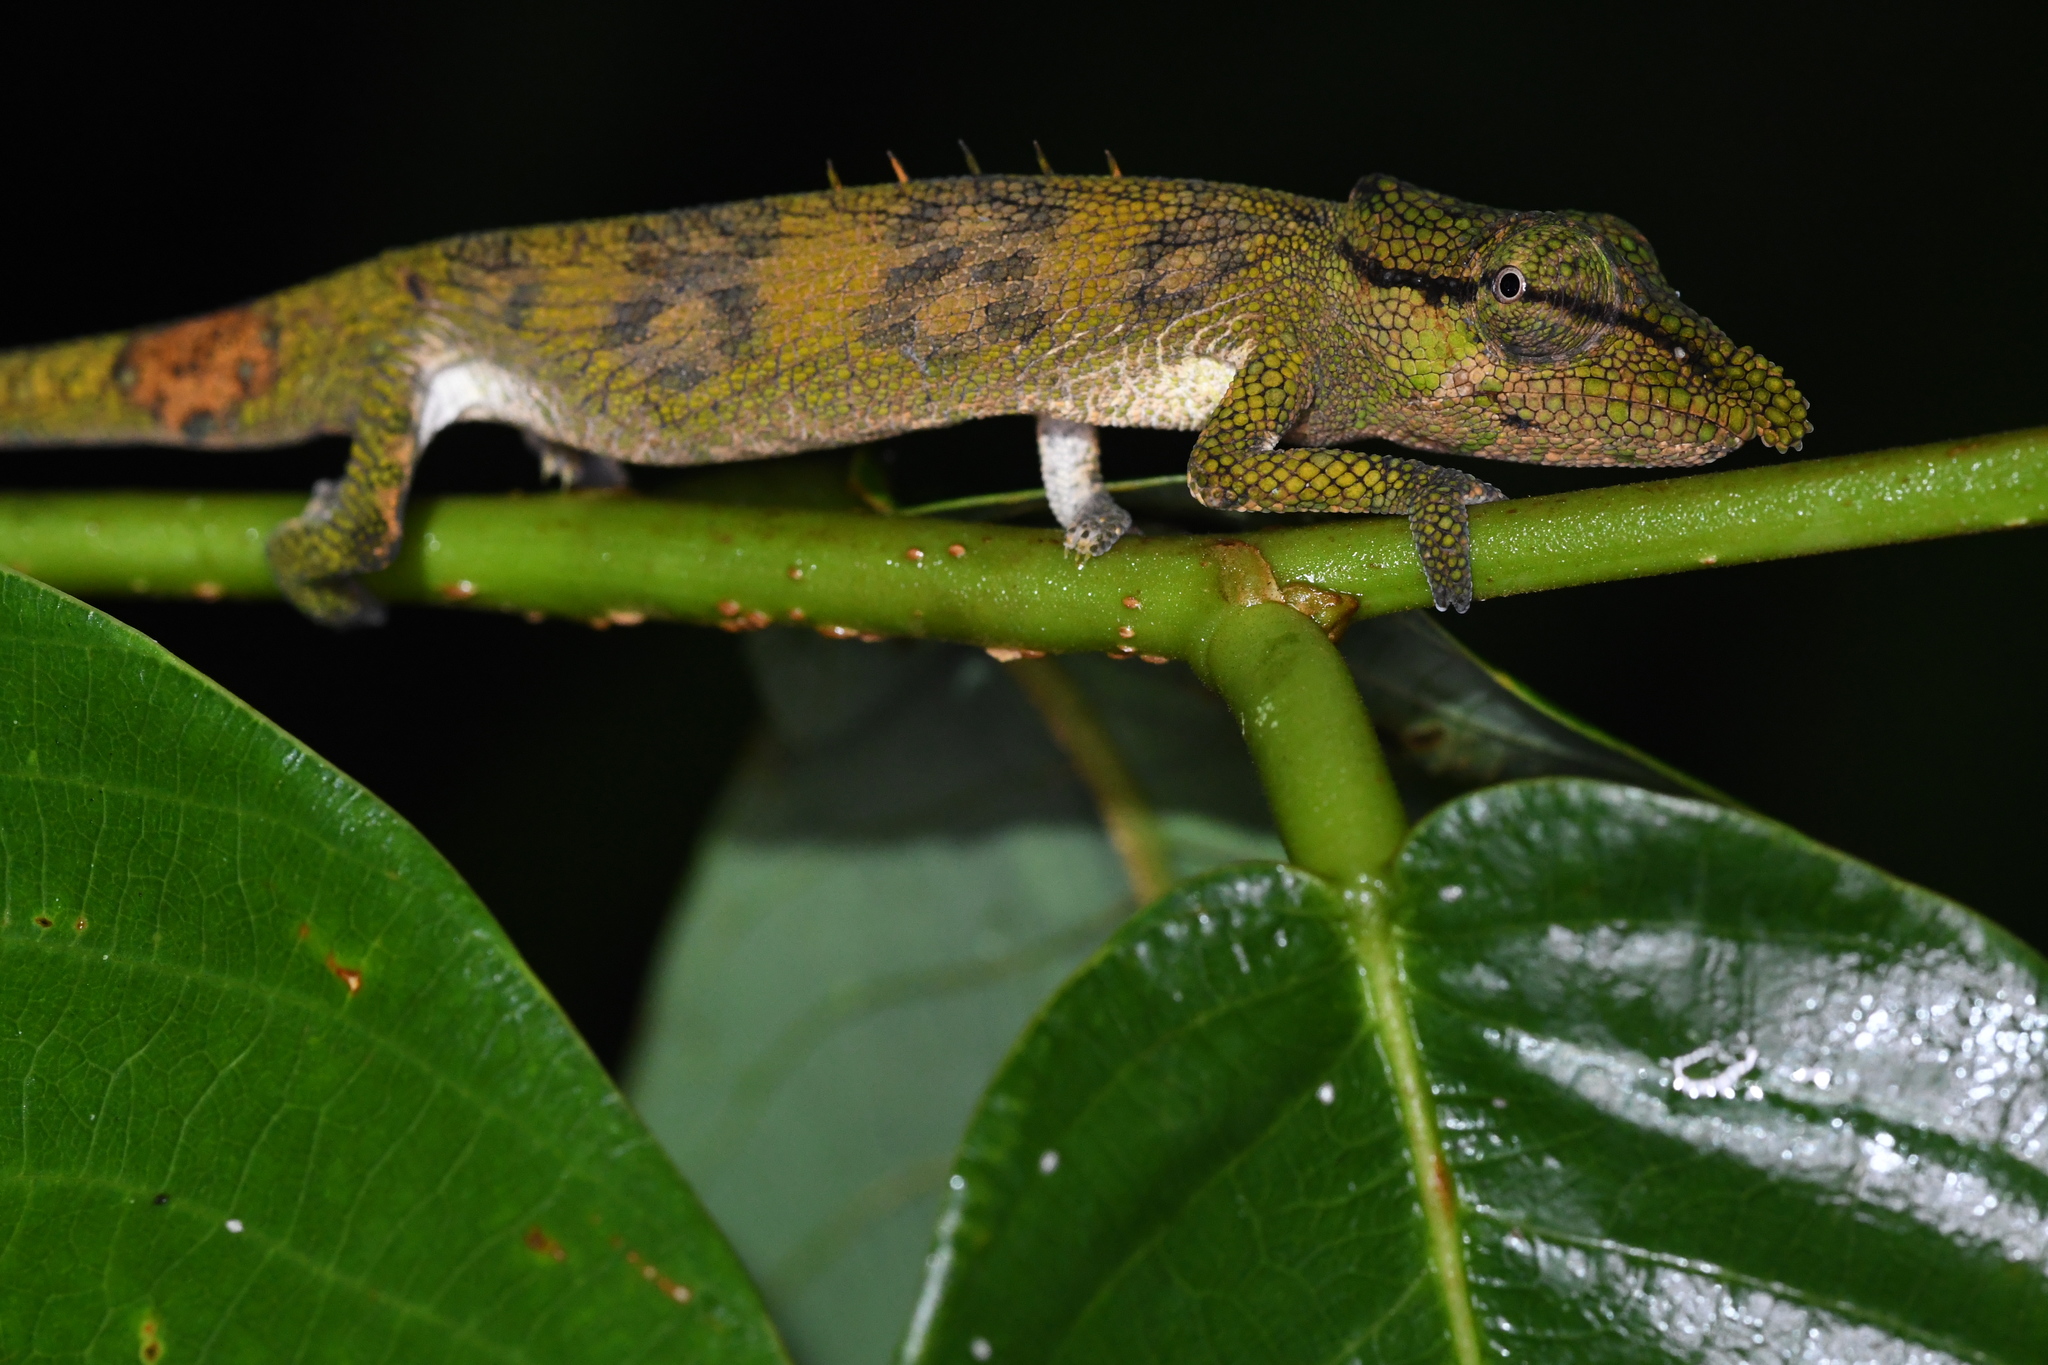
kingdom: Animalia
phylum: Chordata
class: Squamata
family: Chamaeleonidae
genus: Calumma
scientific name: Calumma tjiasmantoi
